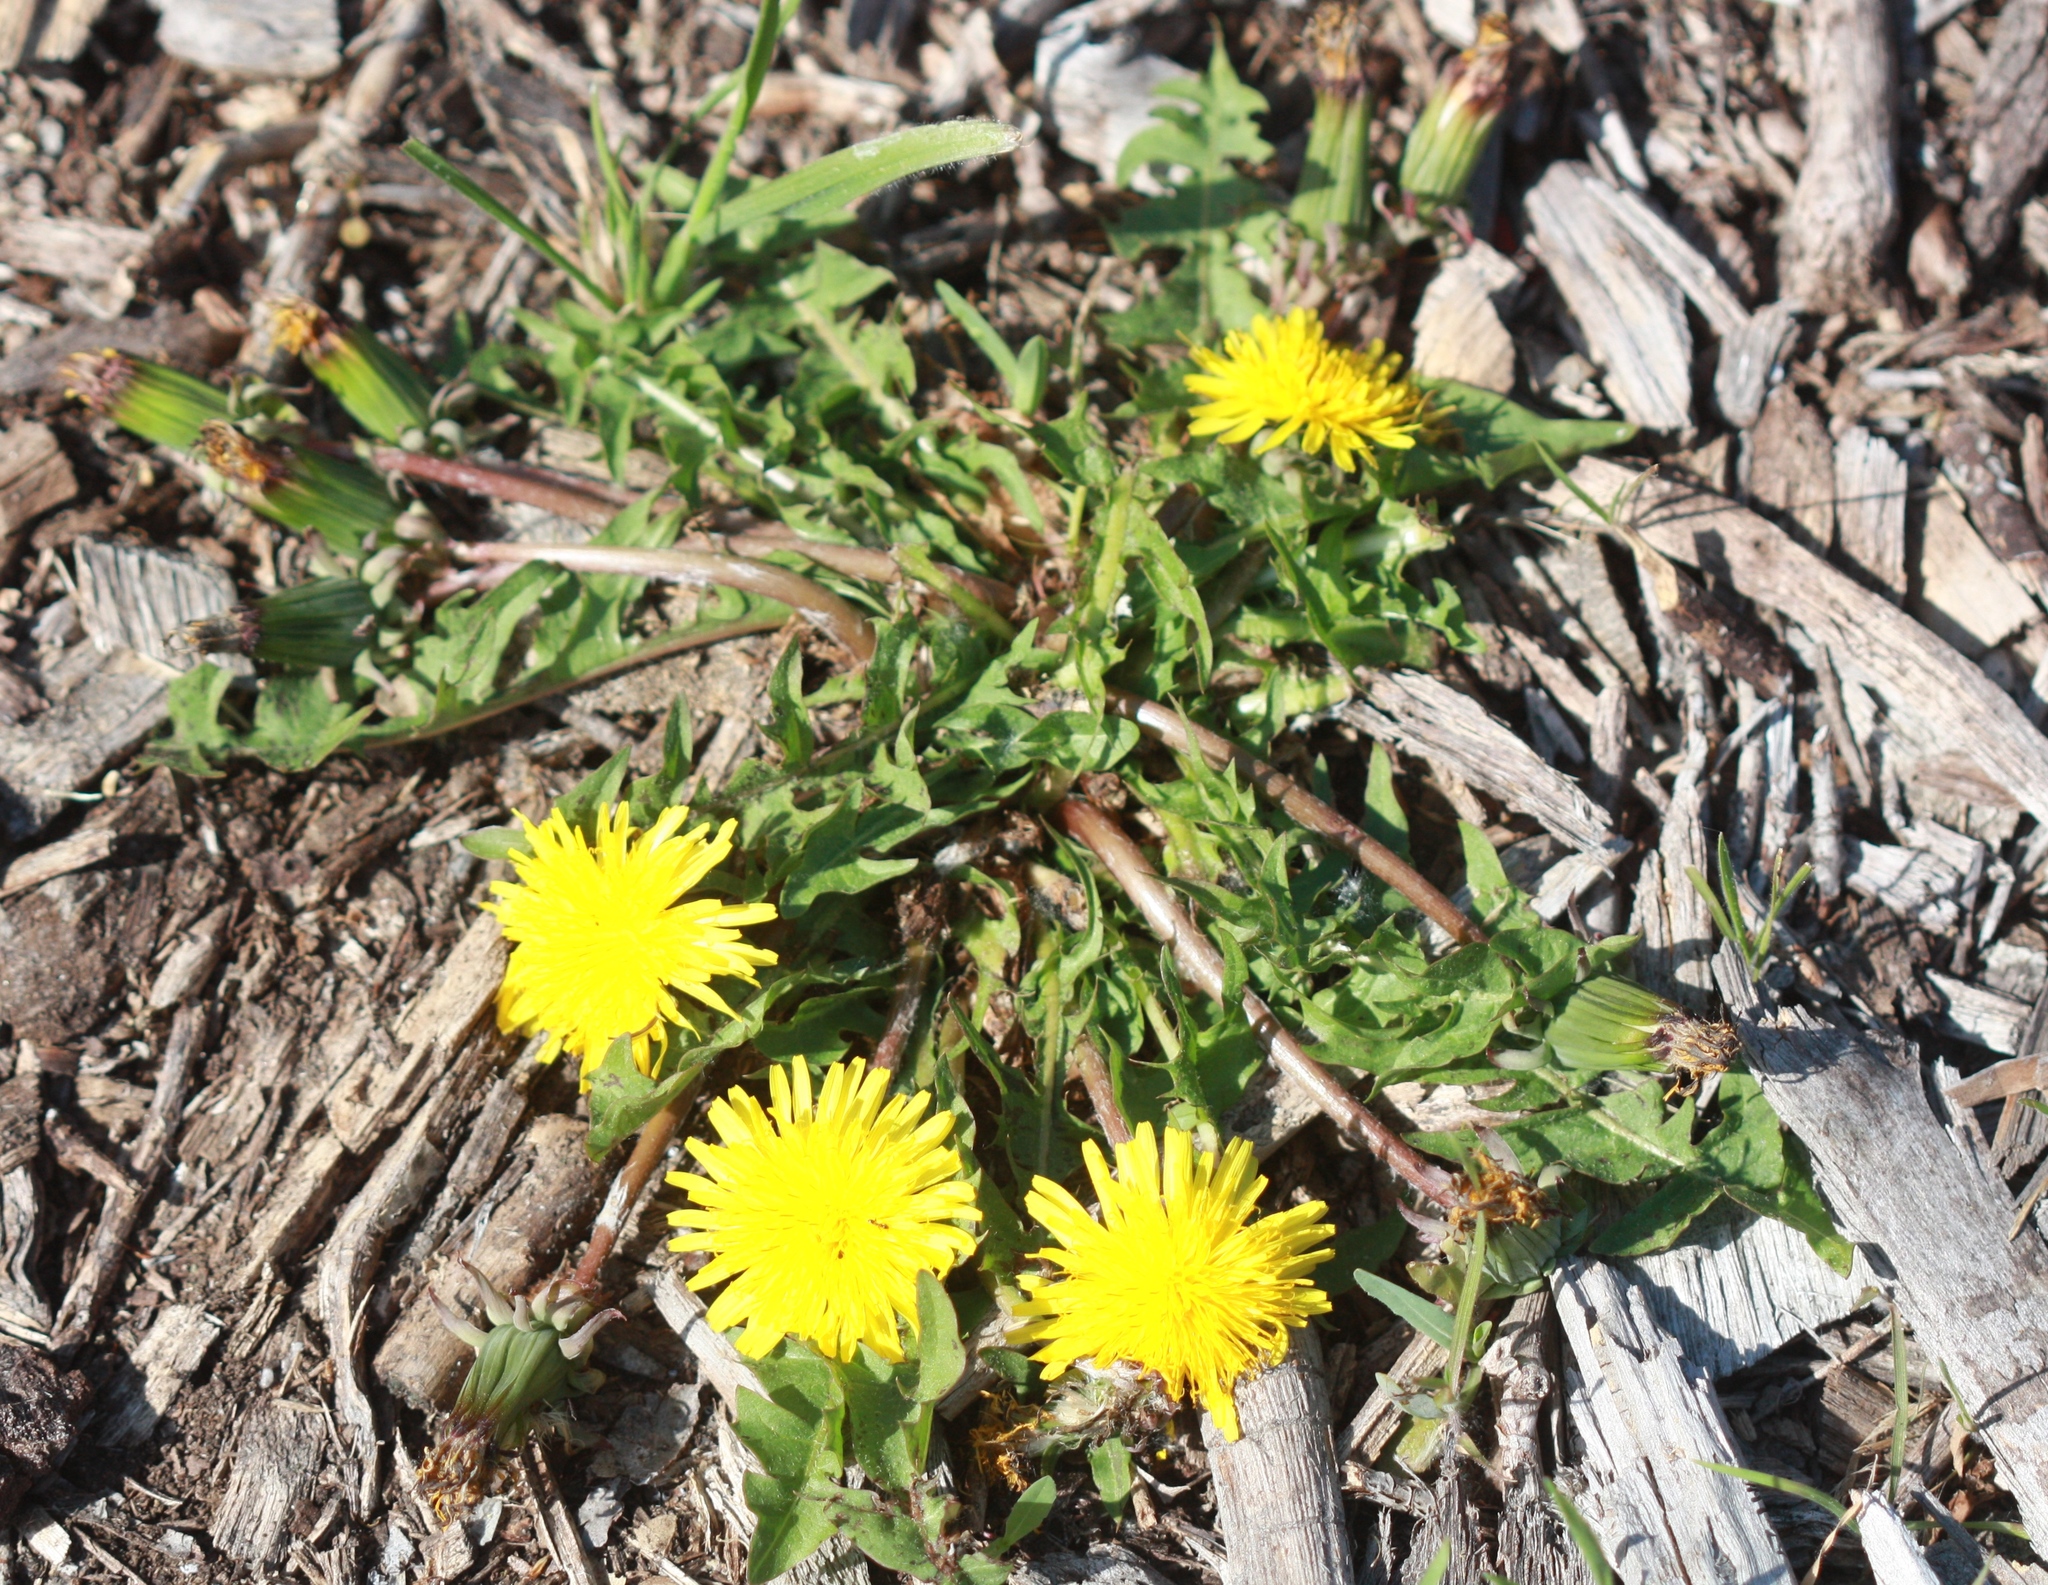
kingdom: Plantae
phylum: Tracheophyta
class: Magnoliopsida
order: Asterales
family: Asteraceae
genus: Taraxacum
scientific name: Taraxacum officinale
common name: Common dandelion
